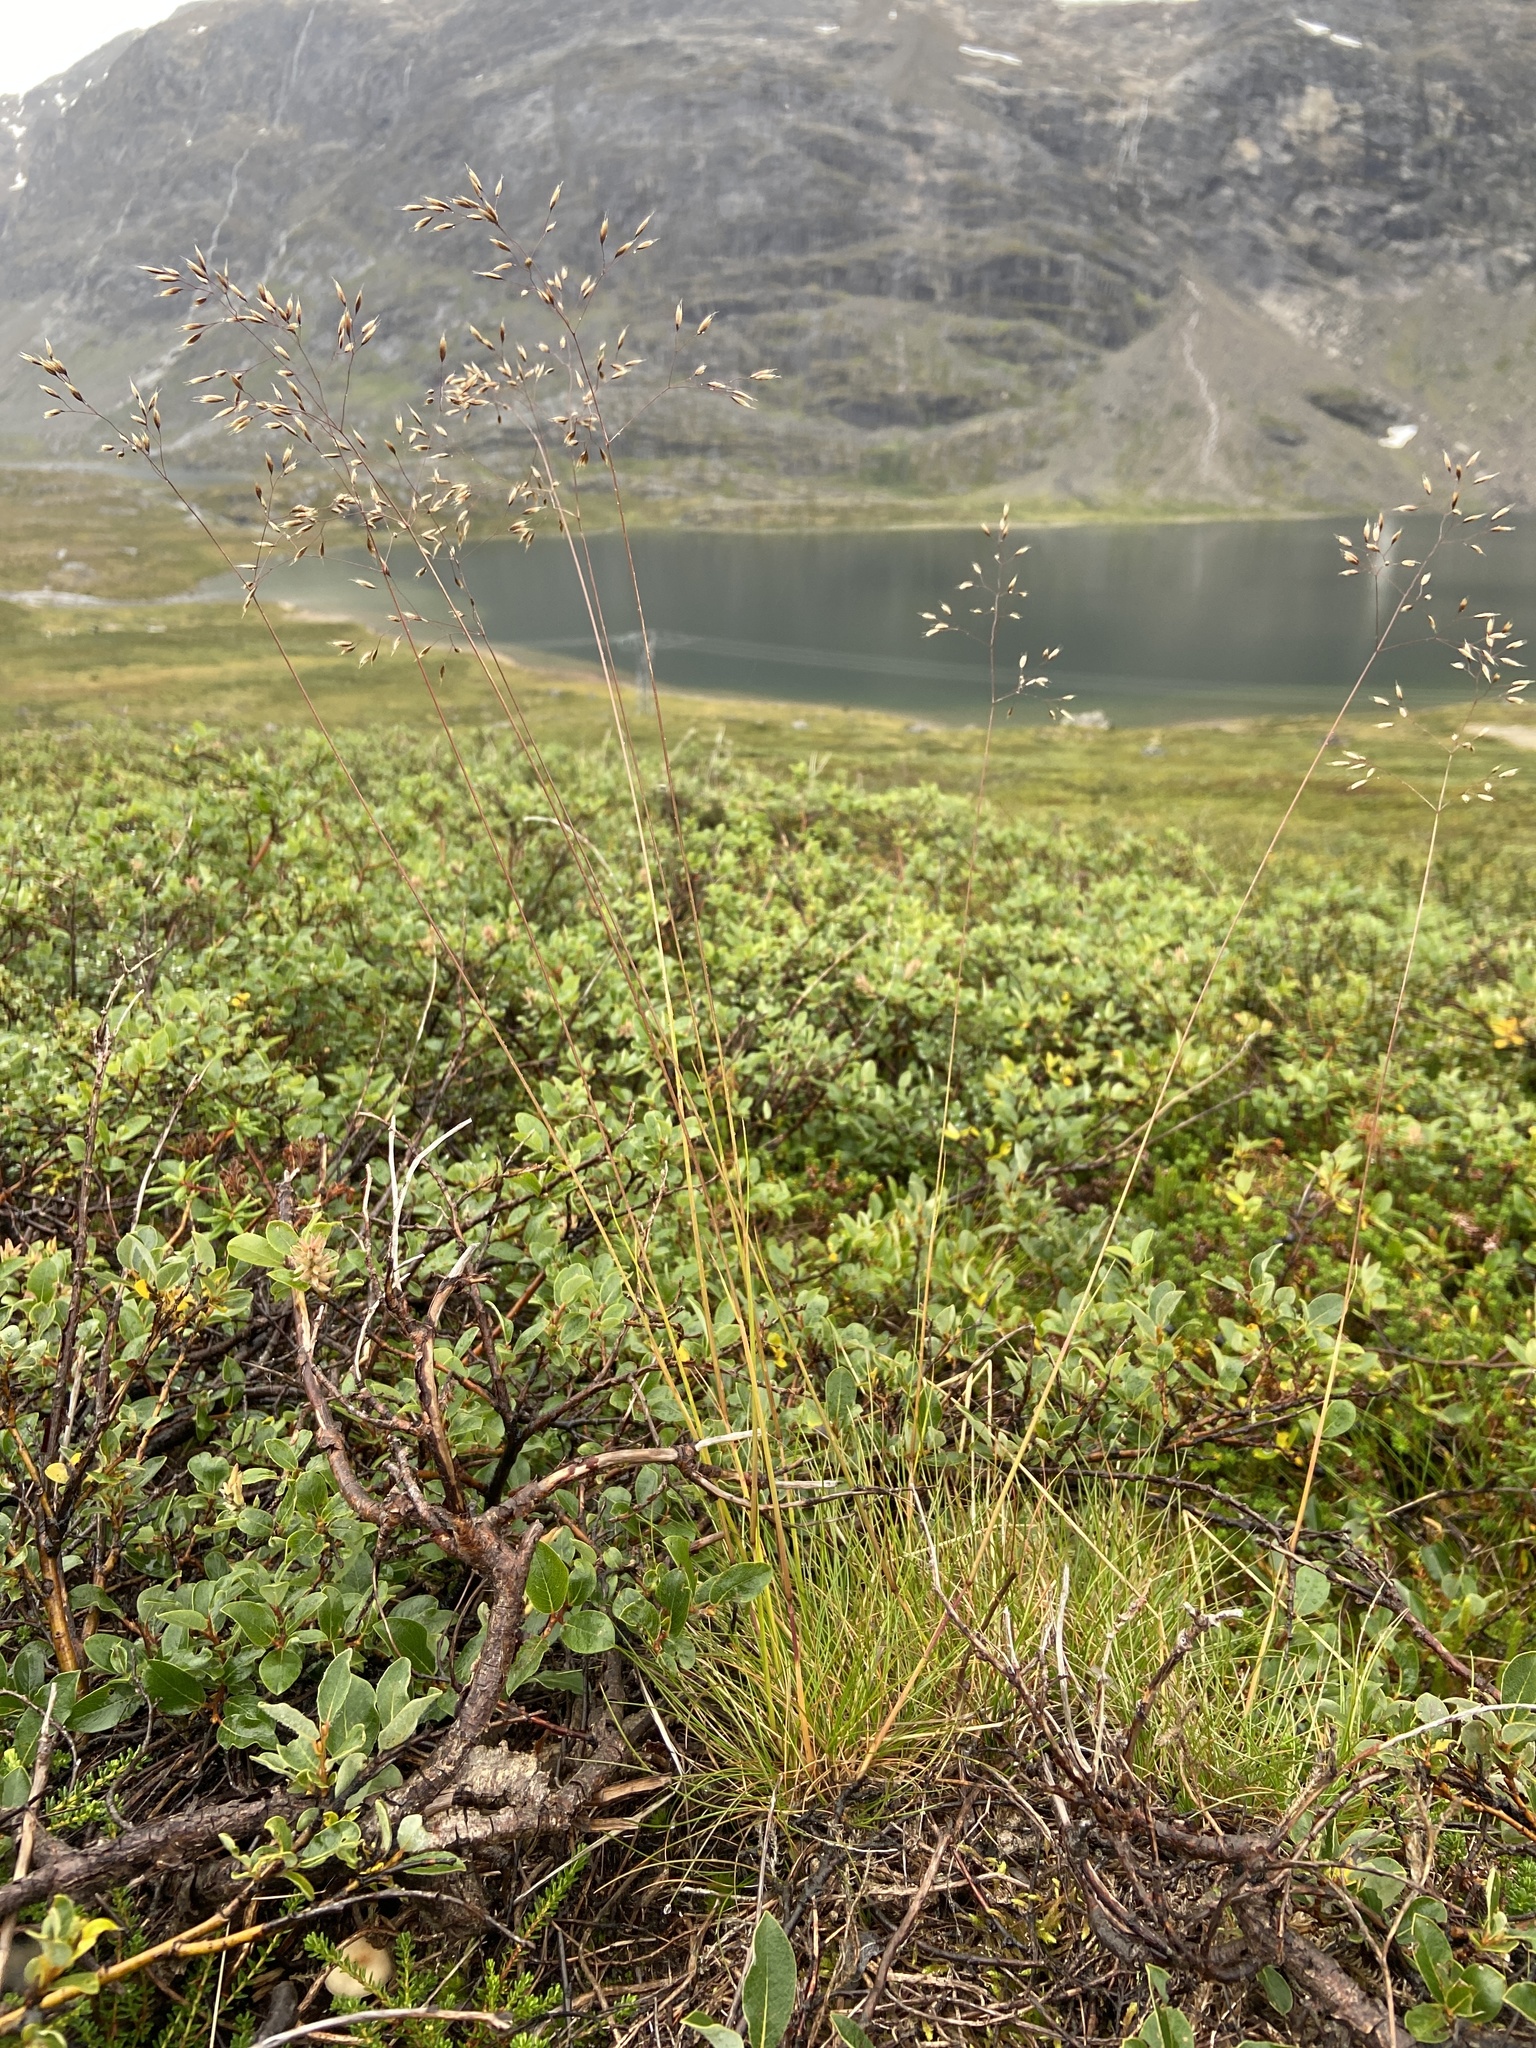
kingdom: Plantae
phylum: Tracheophyta
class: Liliopsida
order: Poales
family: Poaceae
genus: Avenella
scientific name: Avenella flexuosa
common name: Wavy hairgrass
